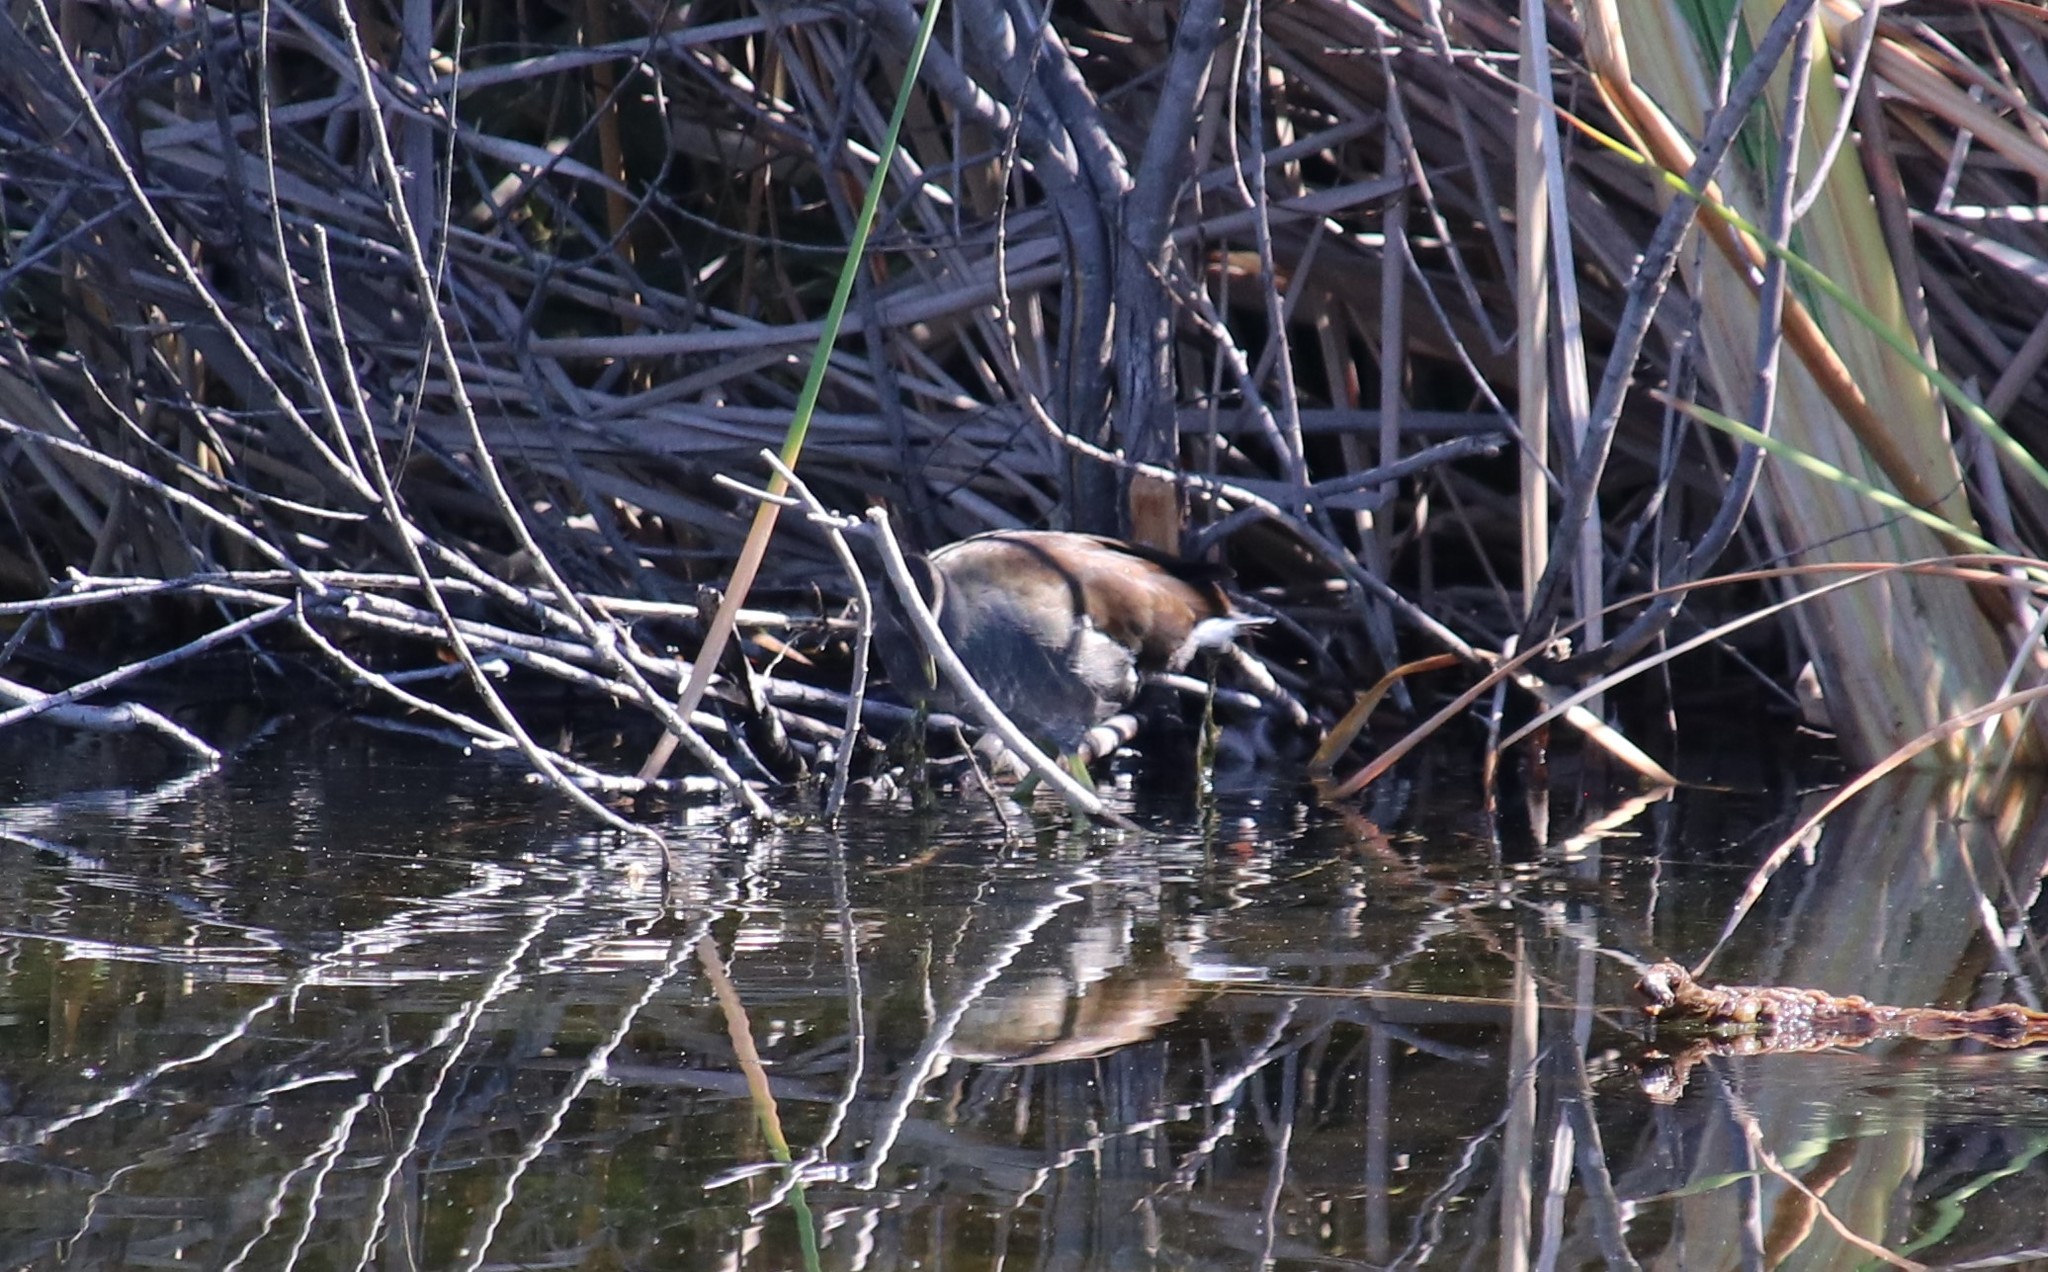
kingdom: Animalia
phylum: Chordata
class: Aves
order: Gruiformes
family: Rallidae
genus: Gallinula
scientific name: Gallinula chloropus
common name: Common moorhen
